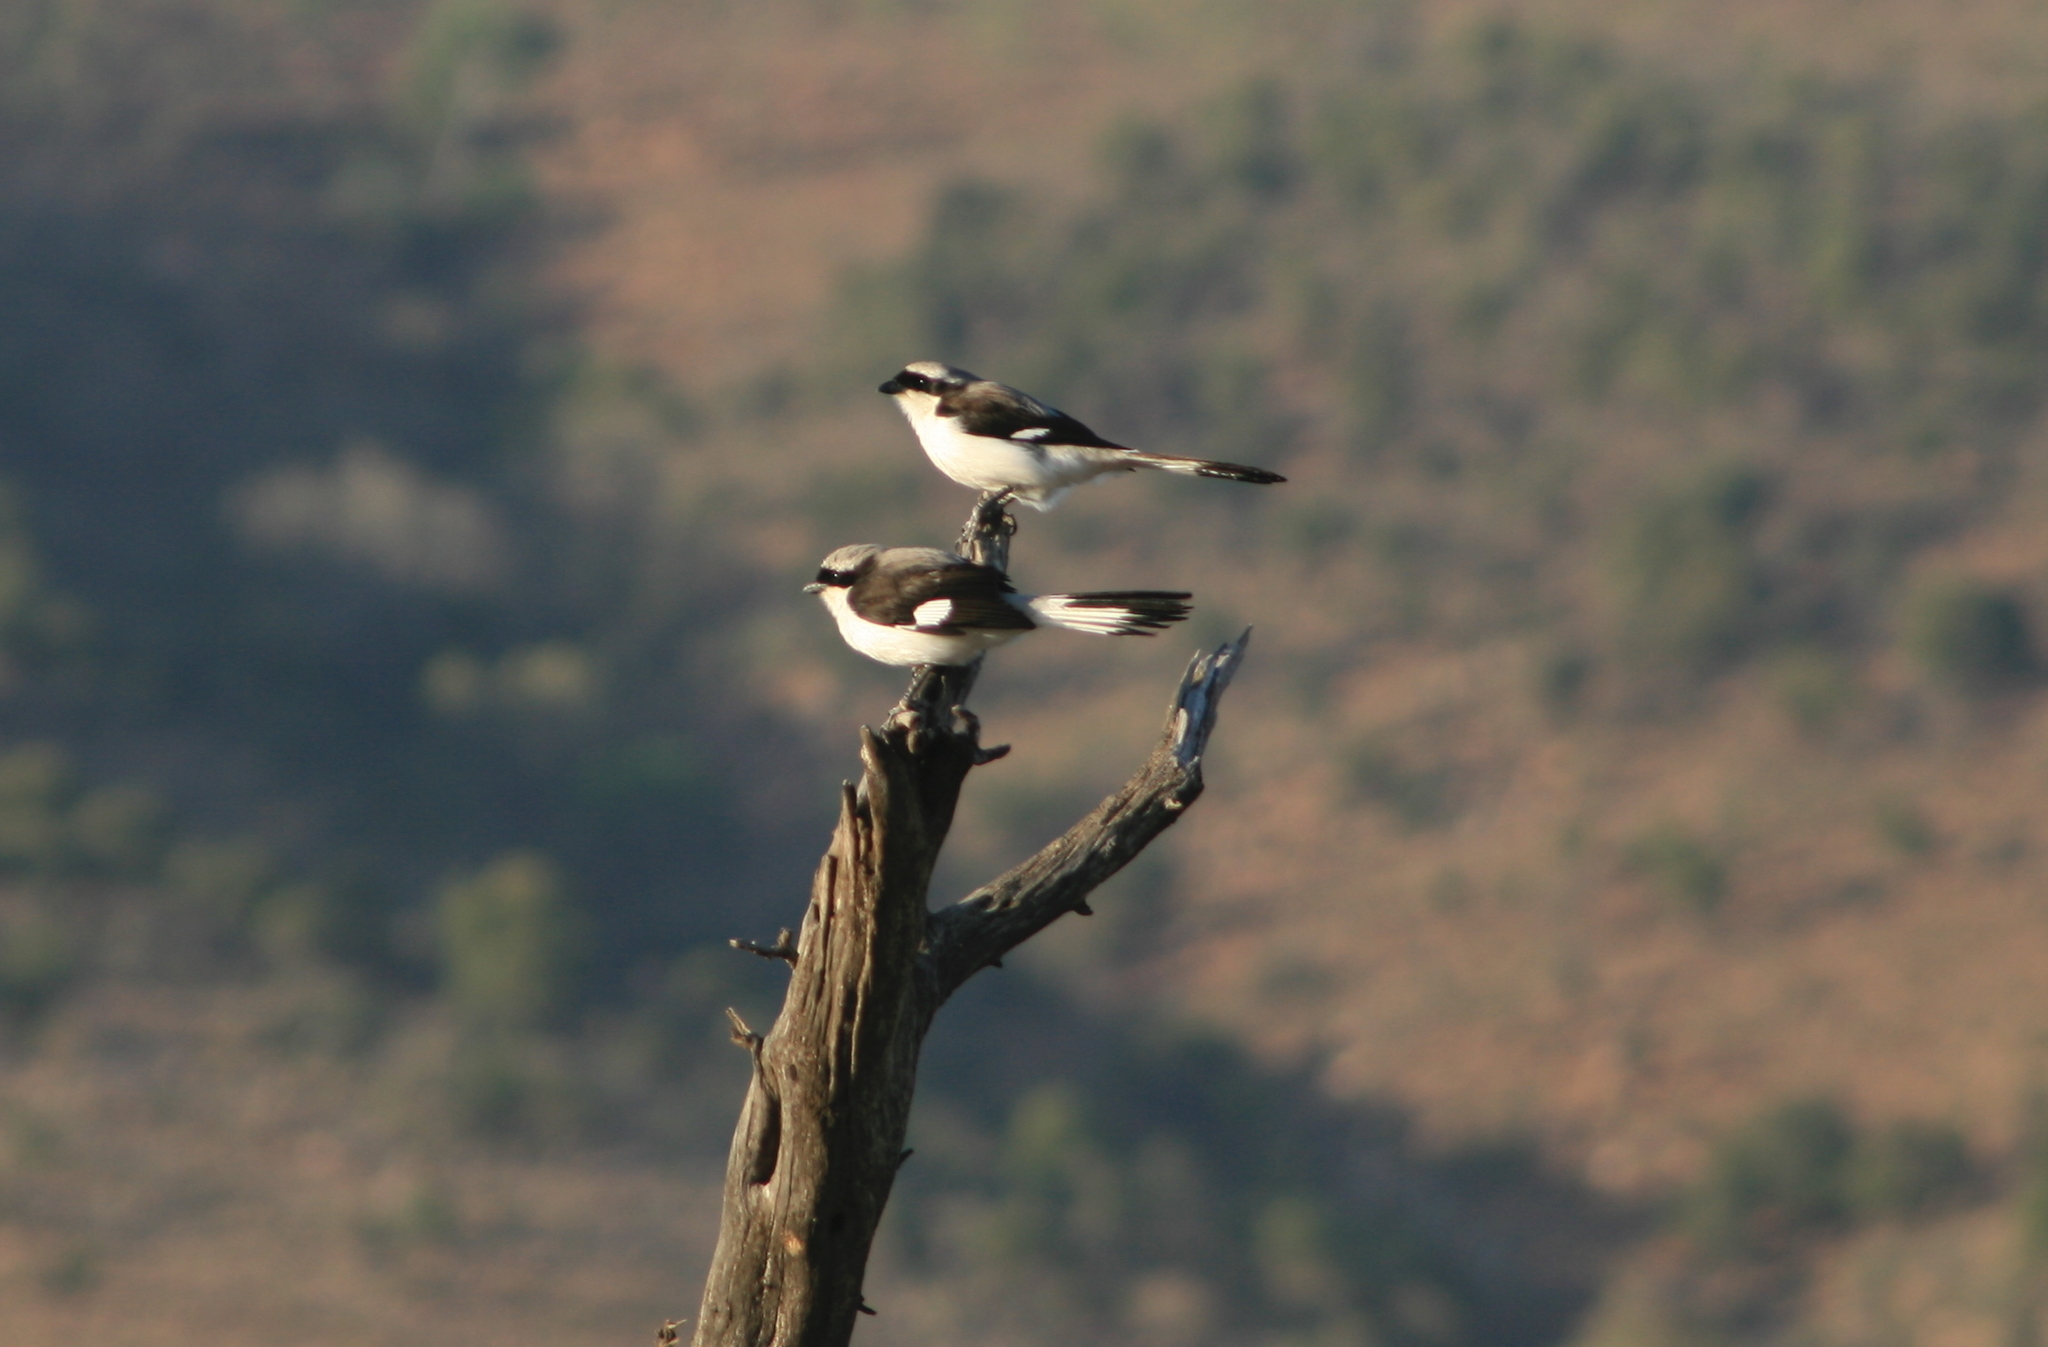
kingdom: Animalia
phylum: Chordata
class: Aves
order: Passeriformes
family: Laniidae
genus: Lanius
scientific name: Lanius excubitoroides
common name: Grey-backed fiscal
